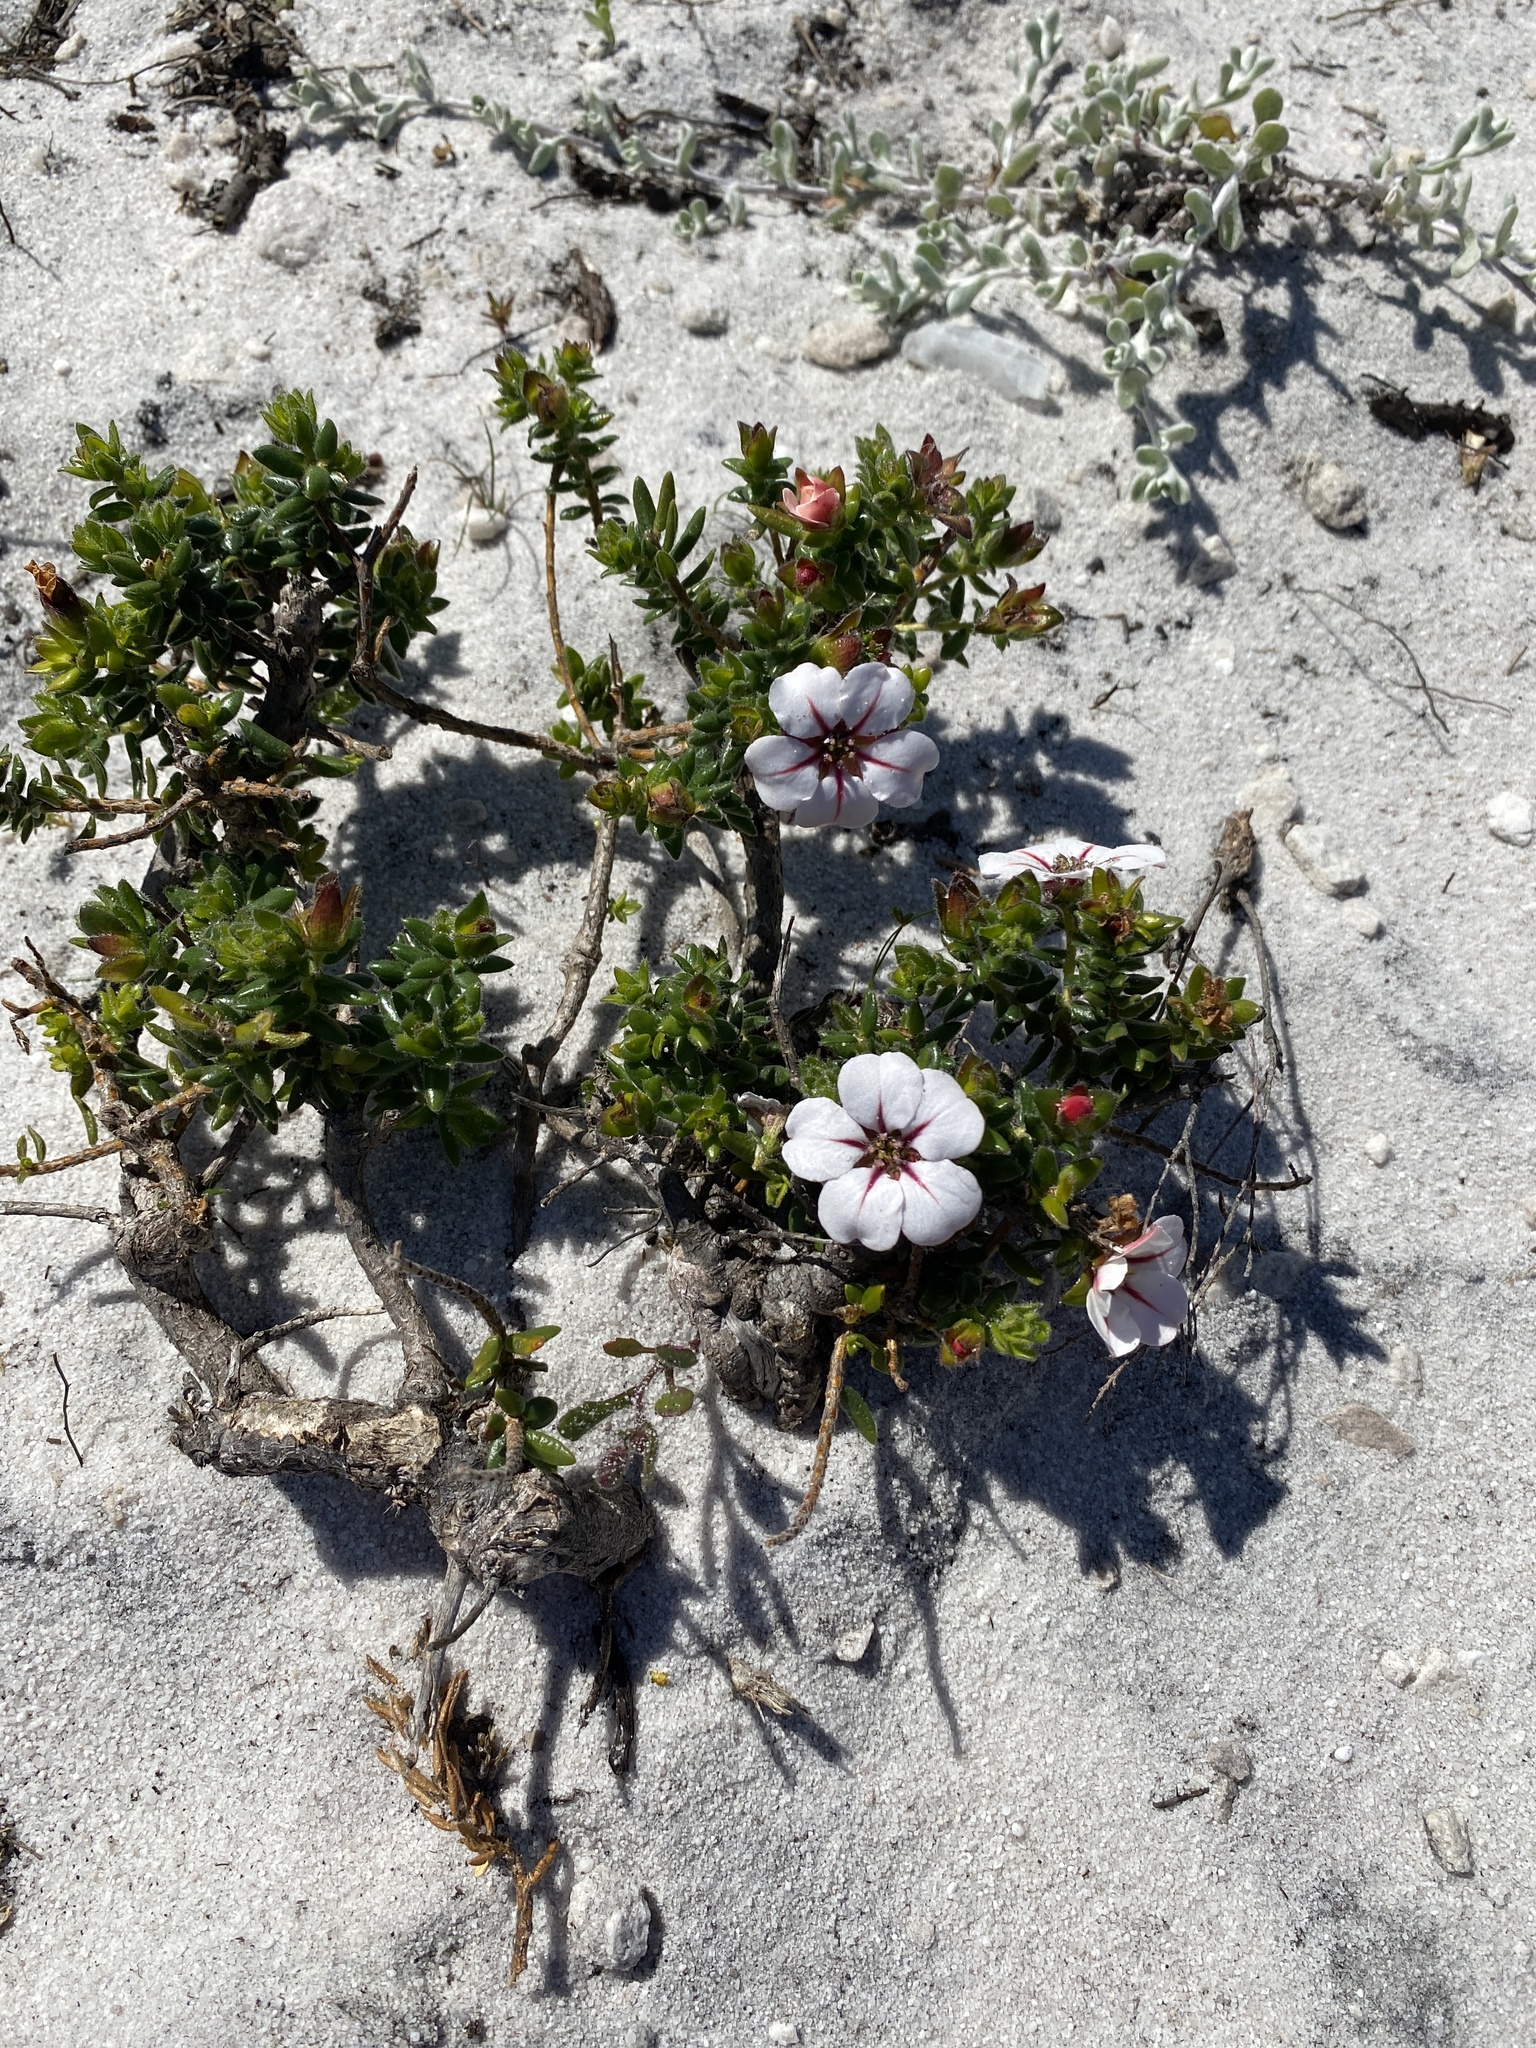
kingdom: Plantae
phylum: Tracheophyta
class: Magnoliopsida
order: Sapindales
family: Rutaceae
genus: Adenandra
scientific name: Adenandra uniflora
